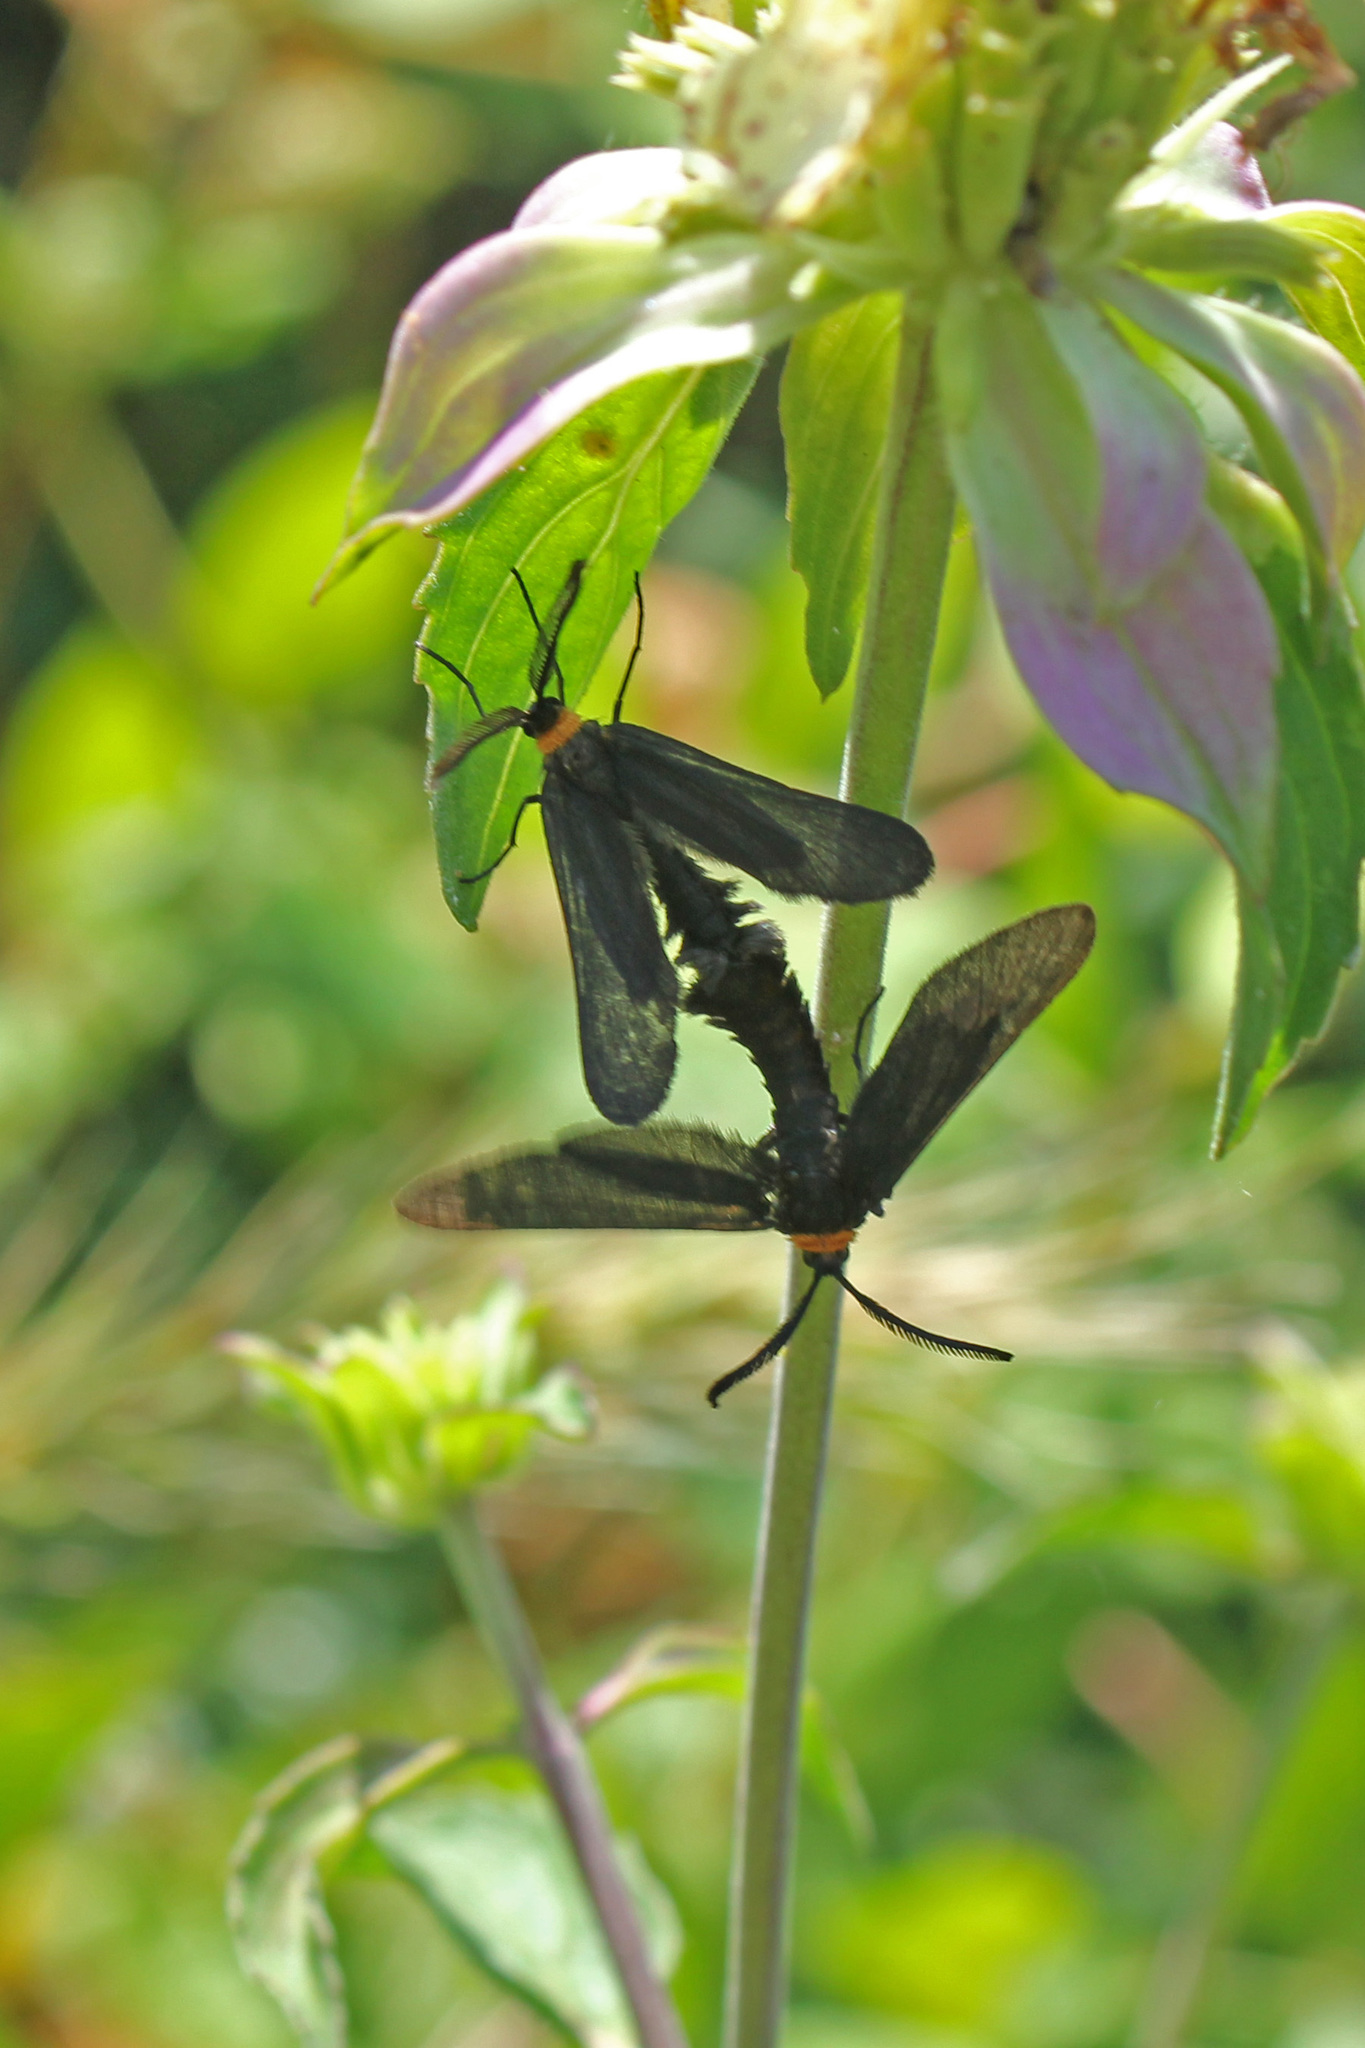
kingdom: Animalia
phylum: Arthropoda
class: Insecta
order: Lepidoptera
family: Zygaenidae
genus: Harrisina
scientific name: Harrisina americana
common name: Grapeleaf skeletonizer moth
